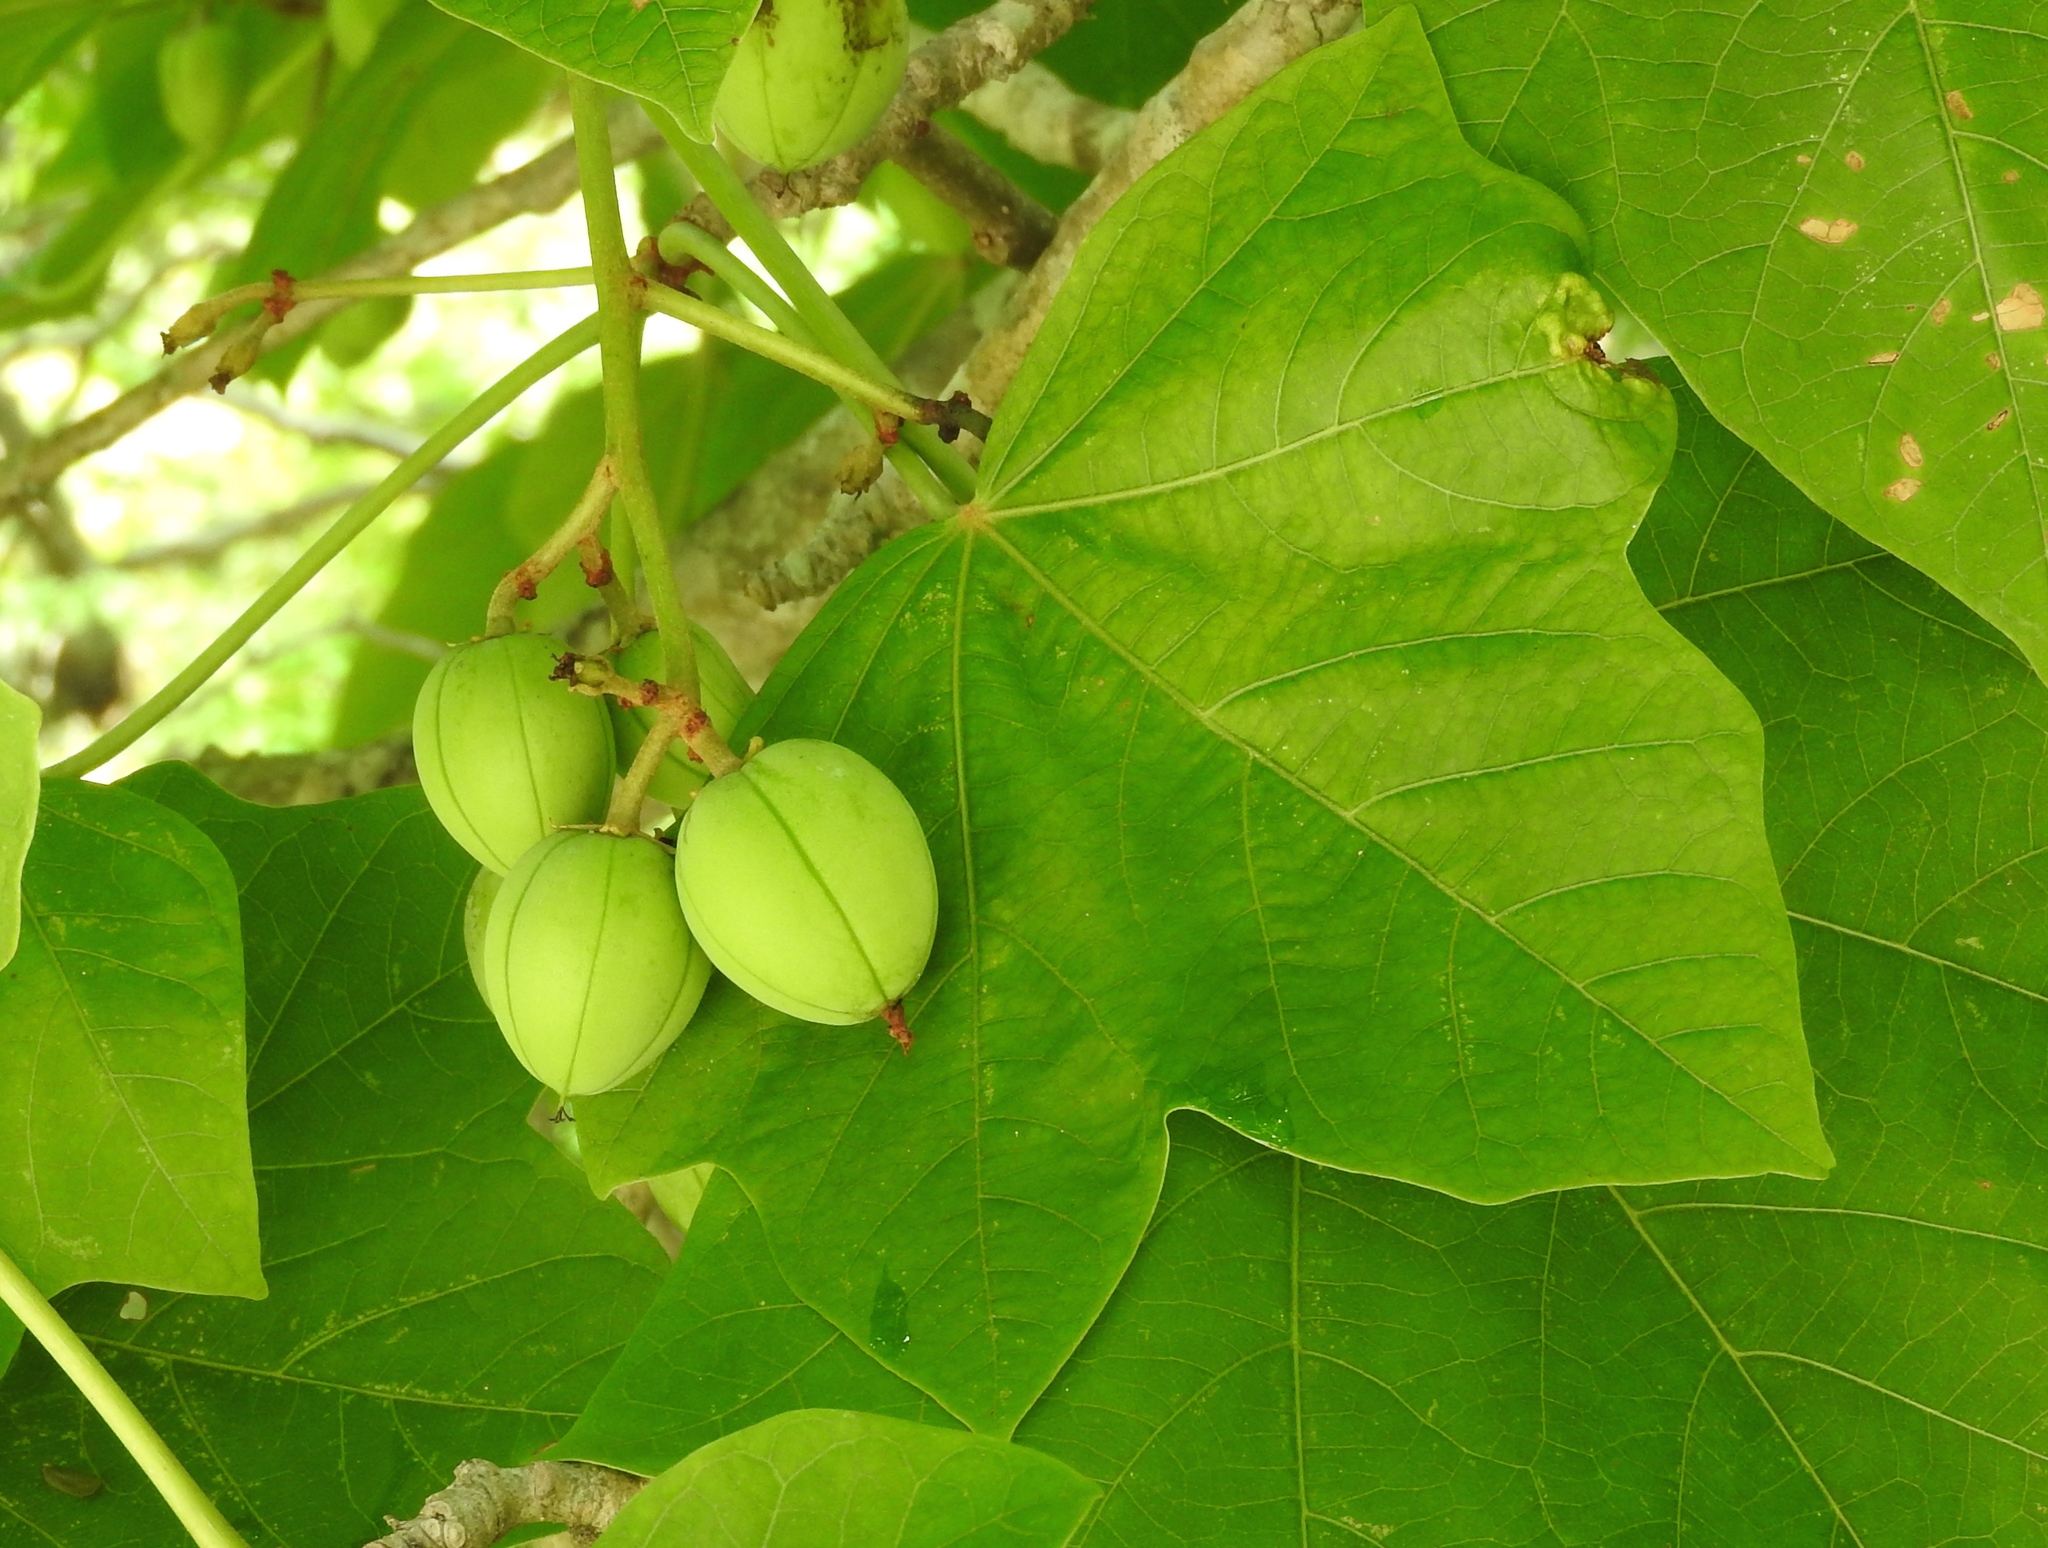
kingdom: Plantae
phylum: Tracheophyta
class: Magnoliopsida
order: Malpighiales
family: Euphorbiaceae
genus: Jatropha
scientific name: Jatropha curcas
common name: Barbados nut
